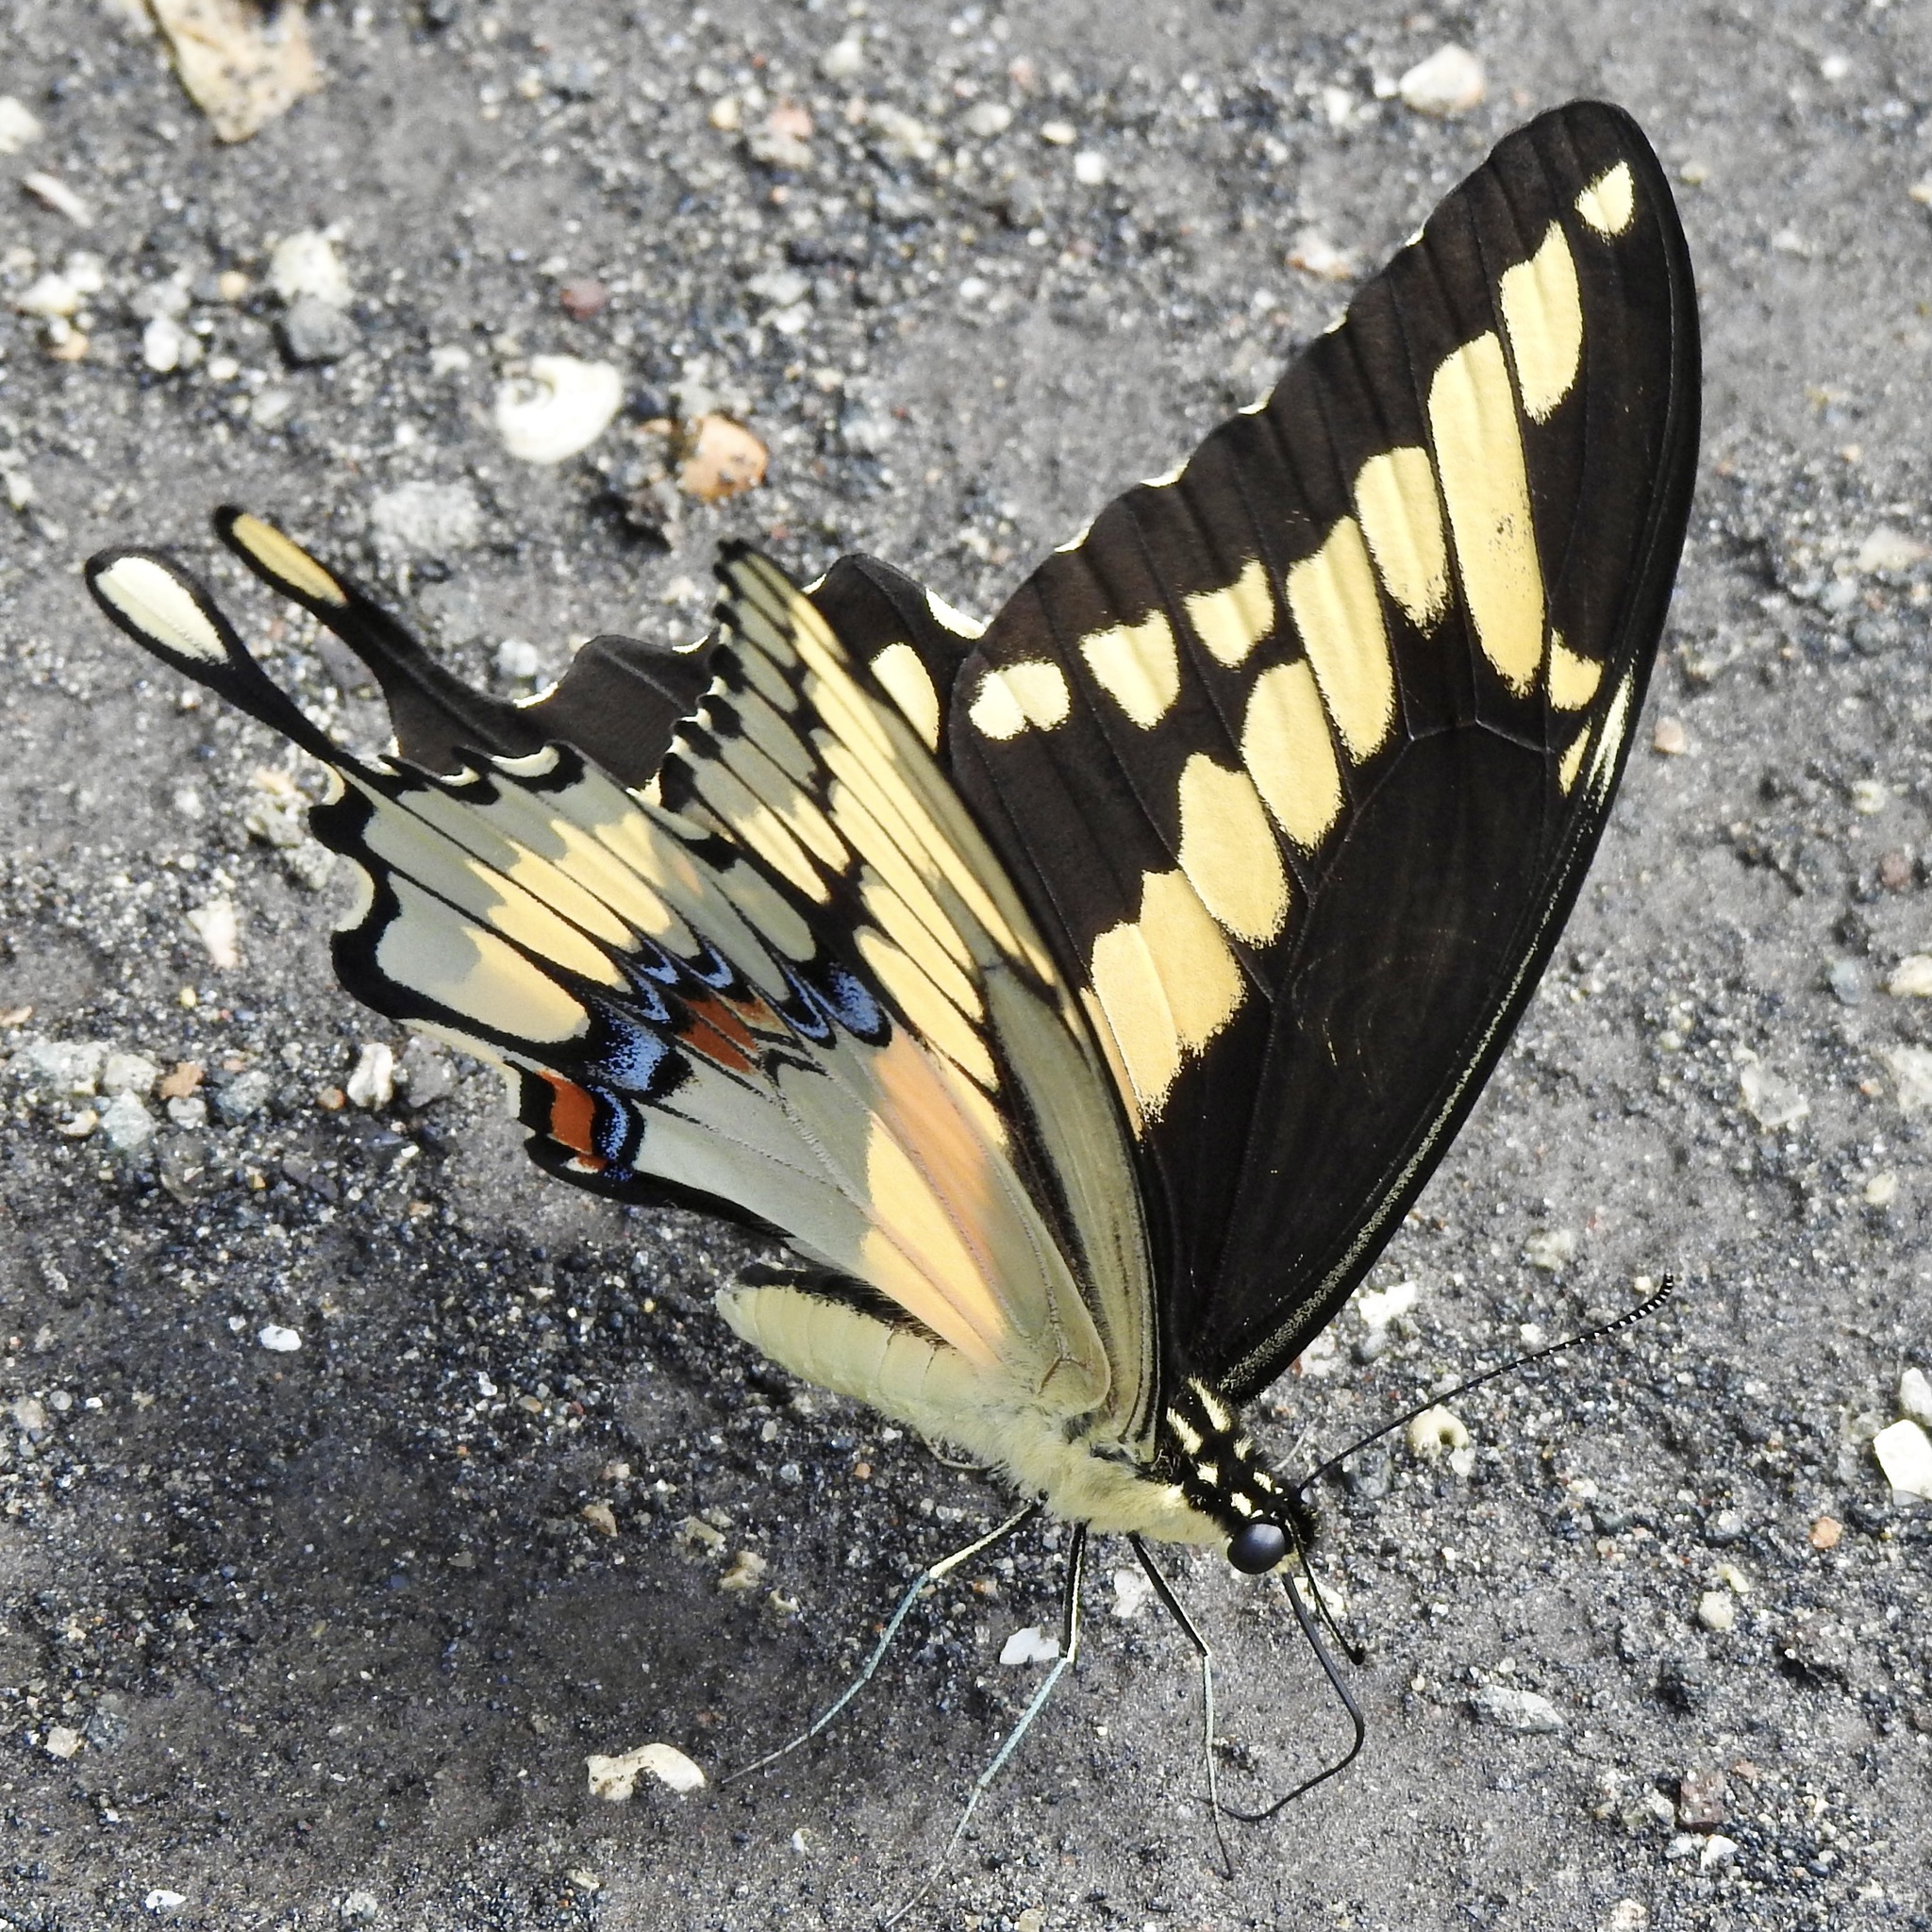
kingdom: Animalia
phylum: Arthropoda
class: Insecta
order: Lepidoptera
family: Papilionidae
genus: Papilio
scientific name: Papilio cresphontes
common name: Giant swallowtail
